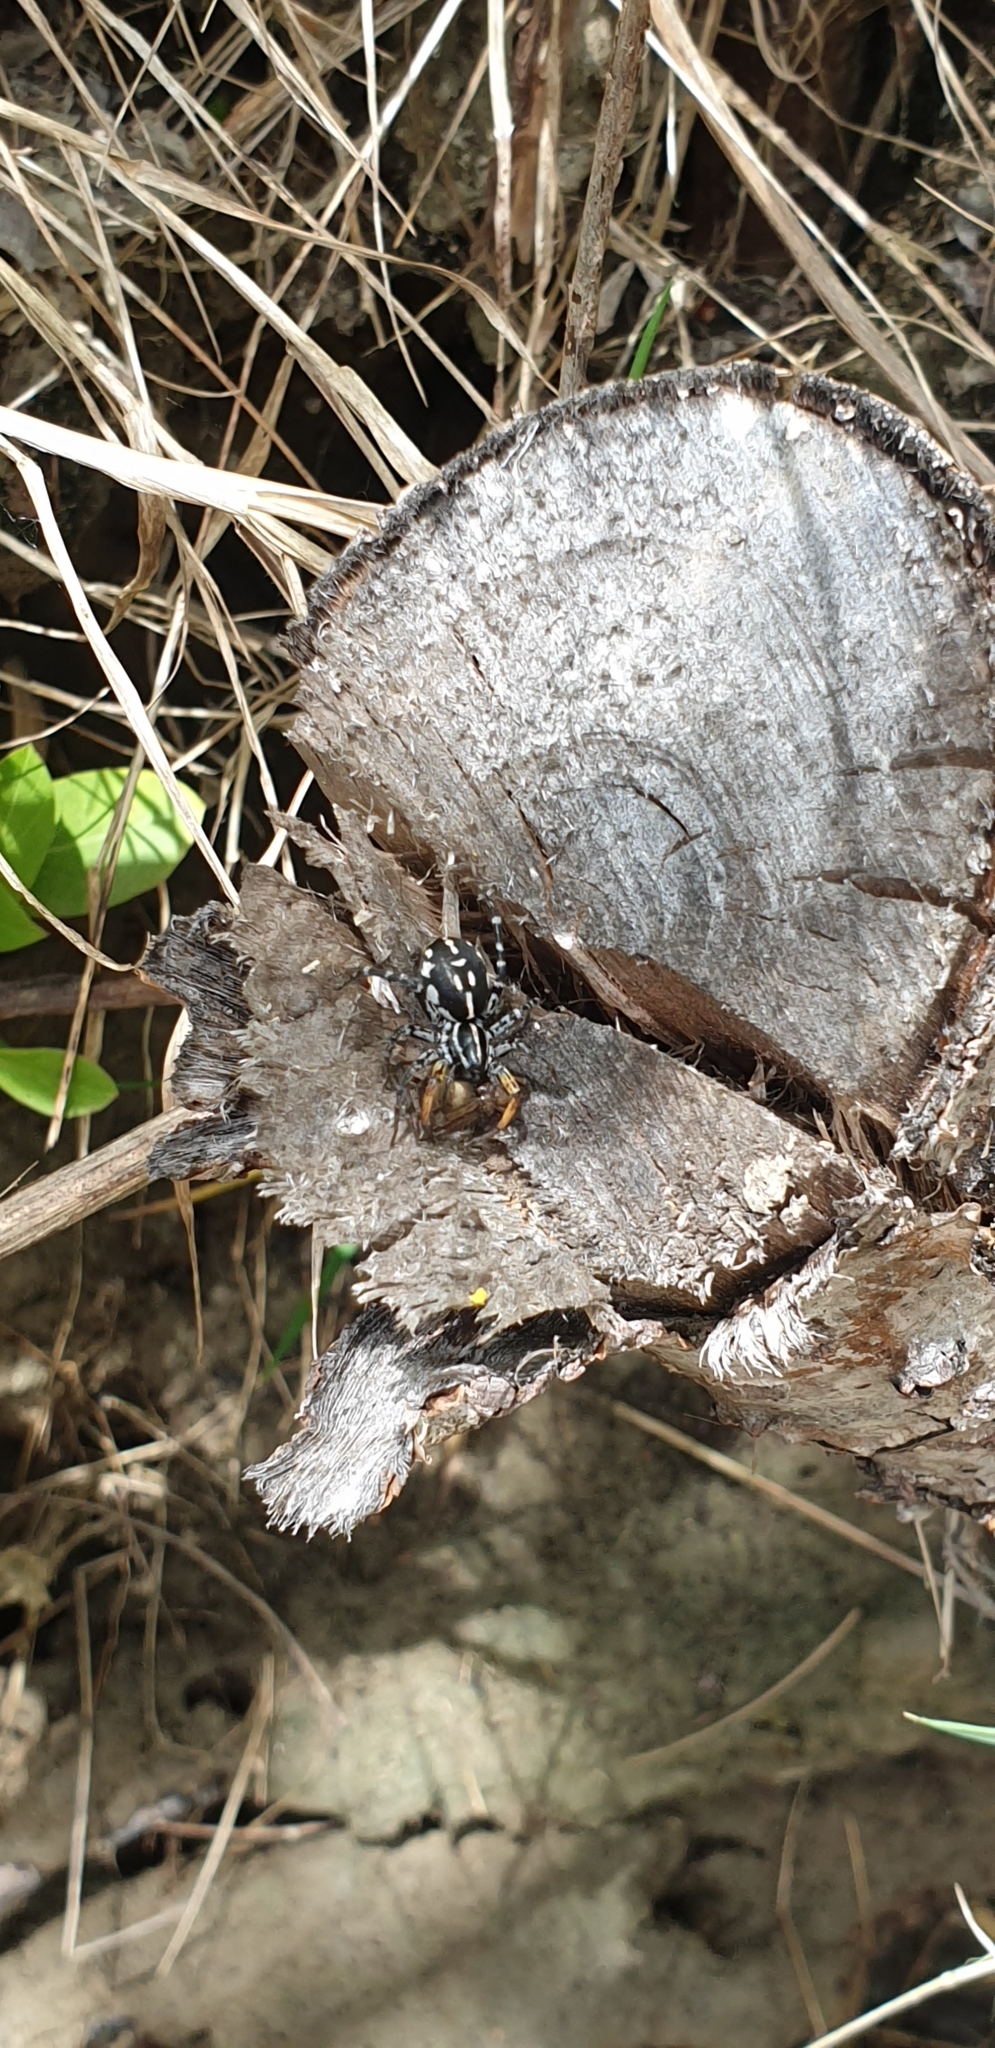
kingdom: Animalia
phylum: Arthropoda
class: Arachnida
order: Araneae
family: Corinnidae
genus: Nyssus
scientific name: Nyssus coloripes
